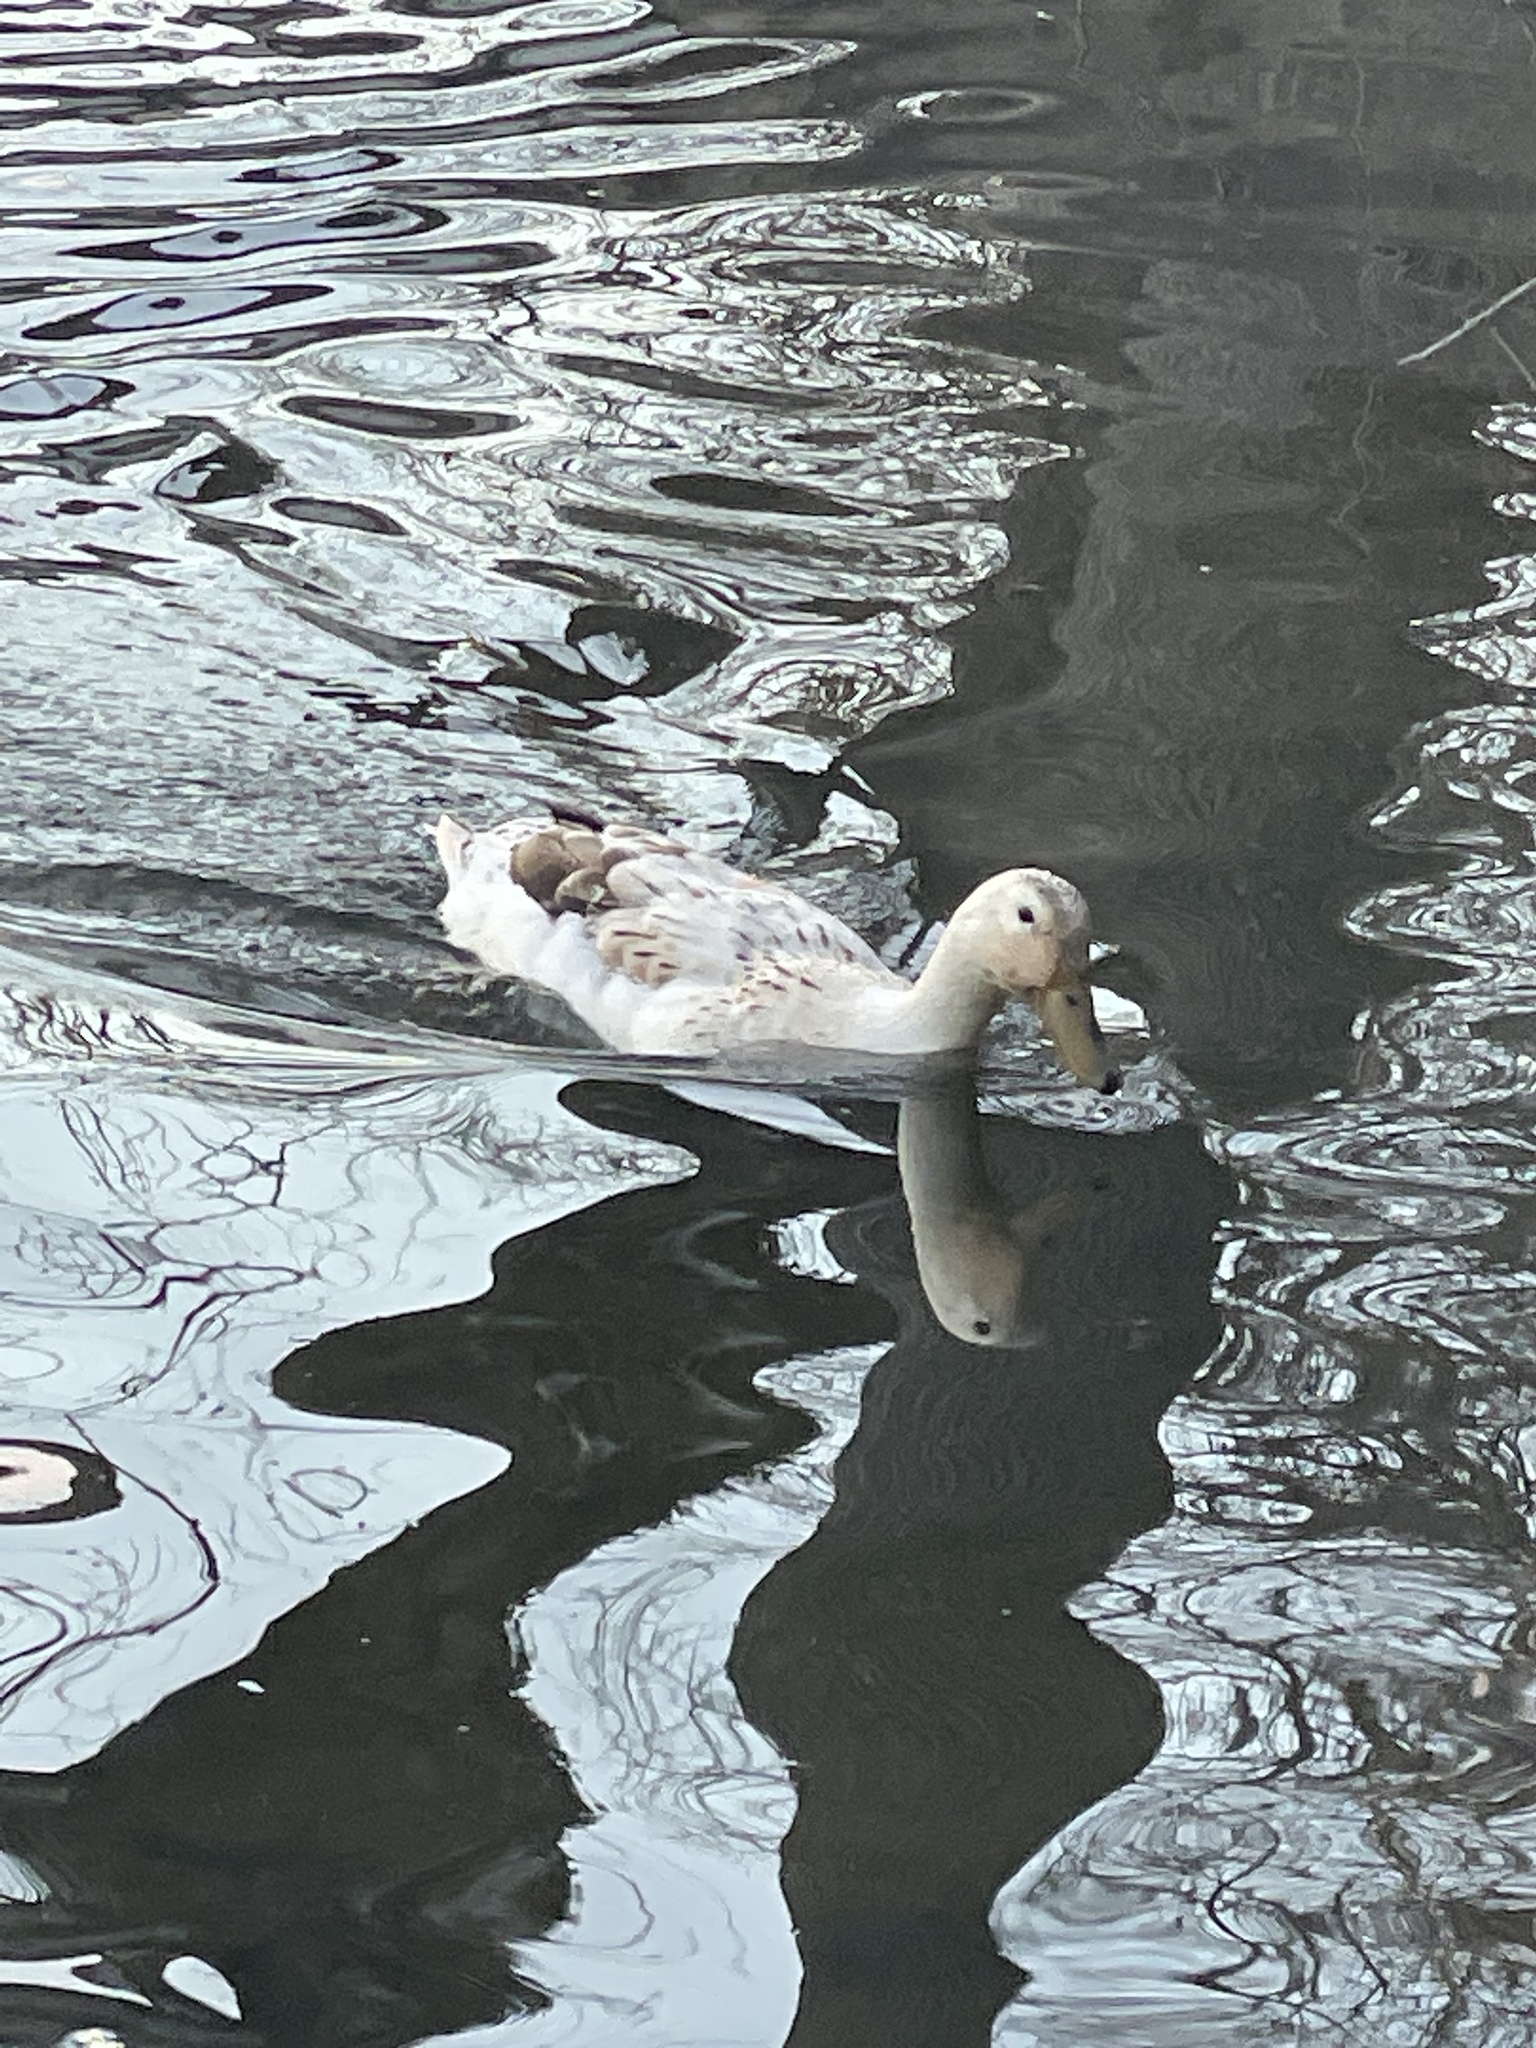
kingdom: Animalia
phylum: Chordata
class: Aves
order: Anseriformes
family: Anatidae
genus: Anas
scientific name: Anas platyrhynchos
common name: Mallard
